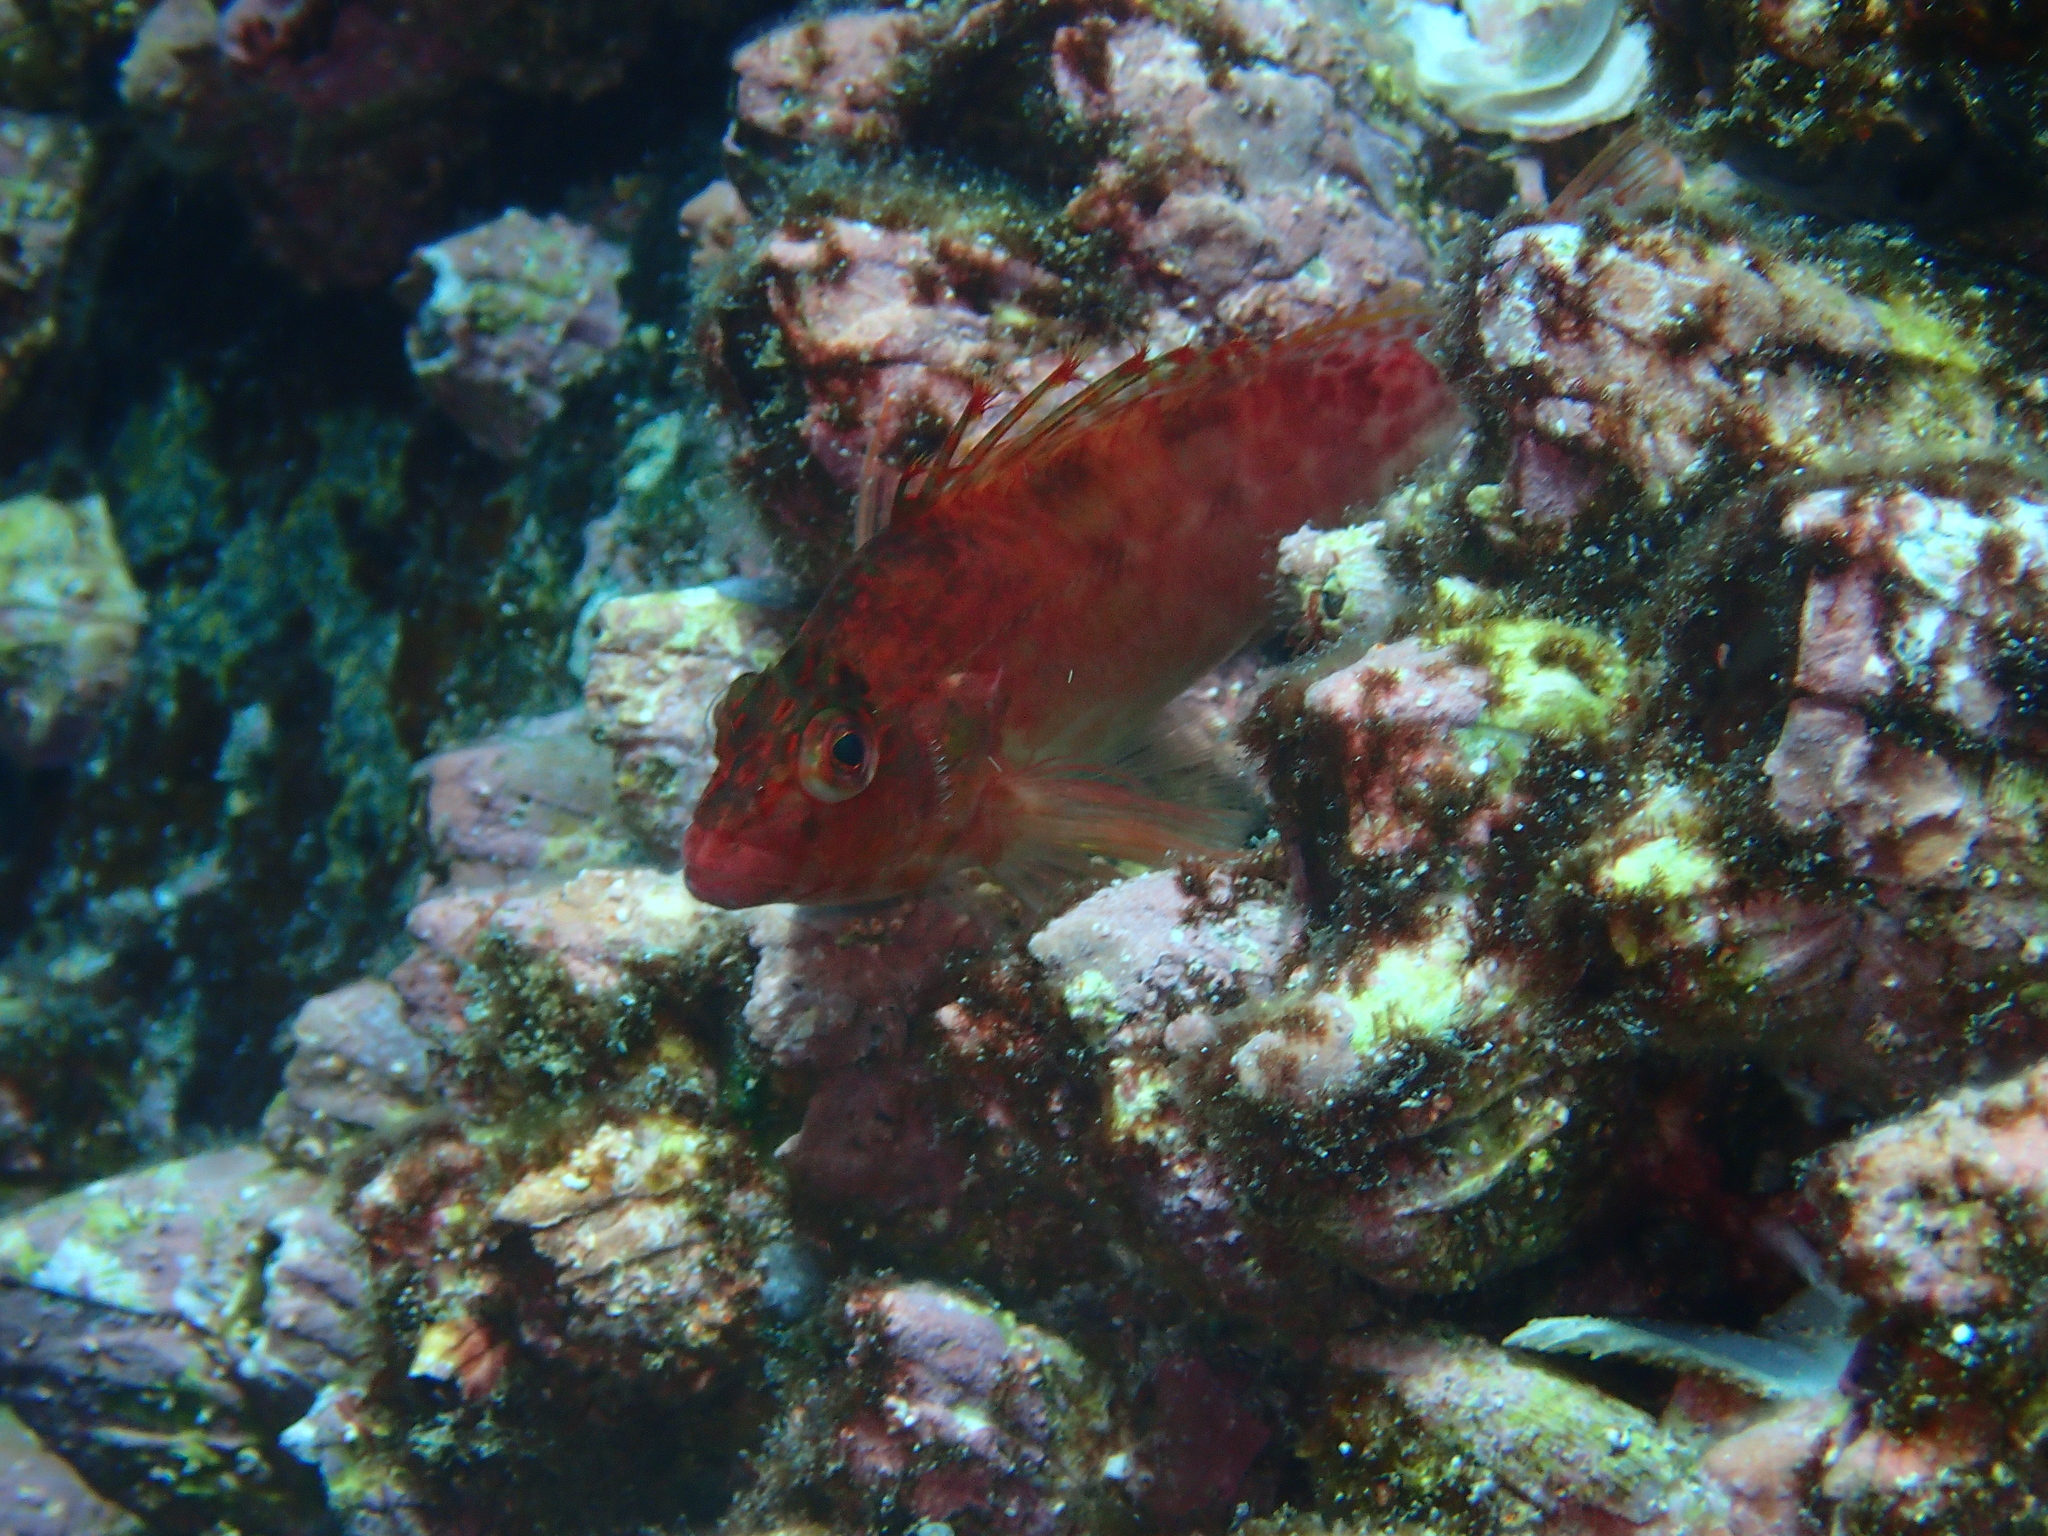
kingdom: Animalia
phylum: Chordata
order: Perciformes
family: Cirrhitidae
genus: Cirrhitichthys
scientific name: Cirrhitichthys oxycephalus
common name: Spotted hawkfish
